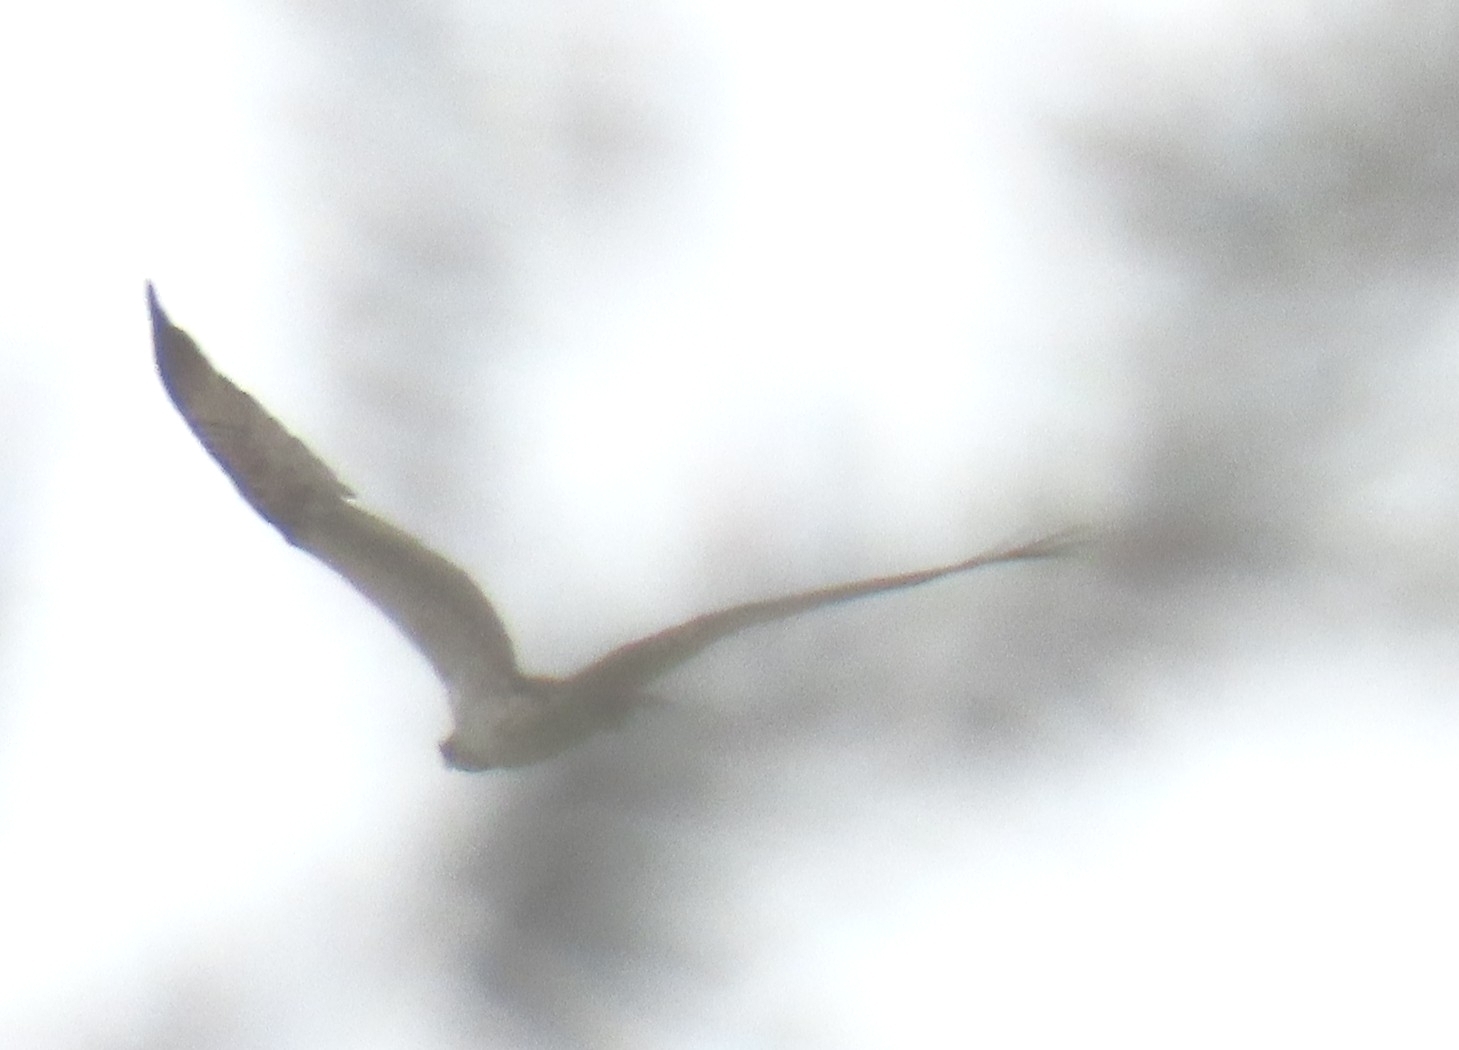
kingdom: Animalia
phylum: Chordata
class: Aves
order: Accipitriformes
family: Pandionidae
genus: Pandion
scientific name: Pandion haliaetus
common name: Osprey
